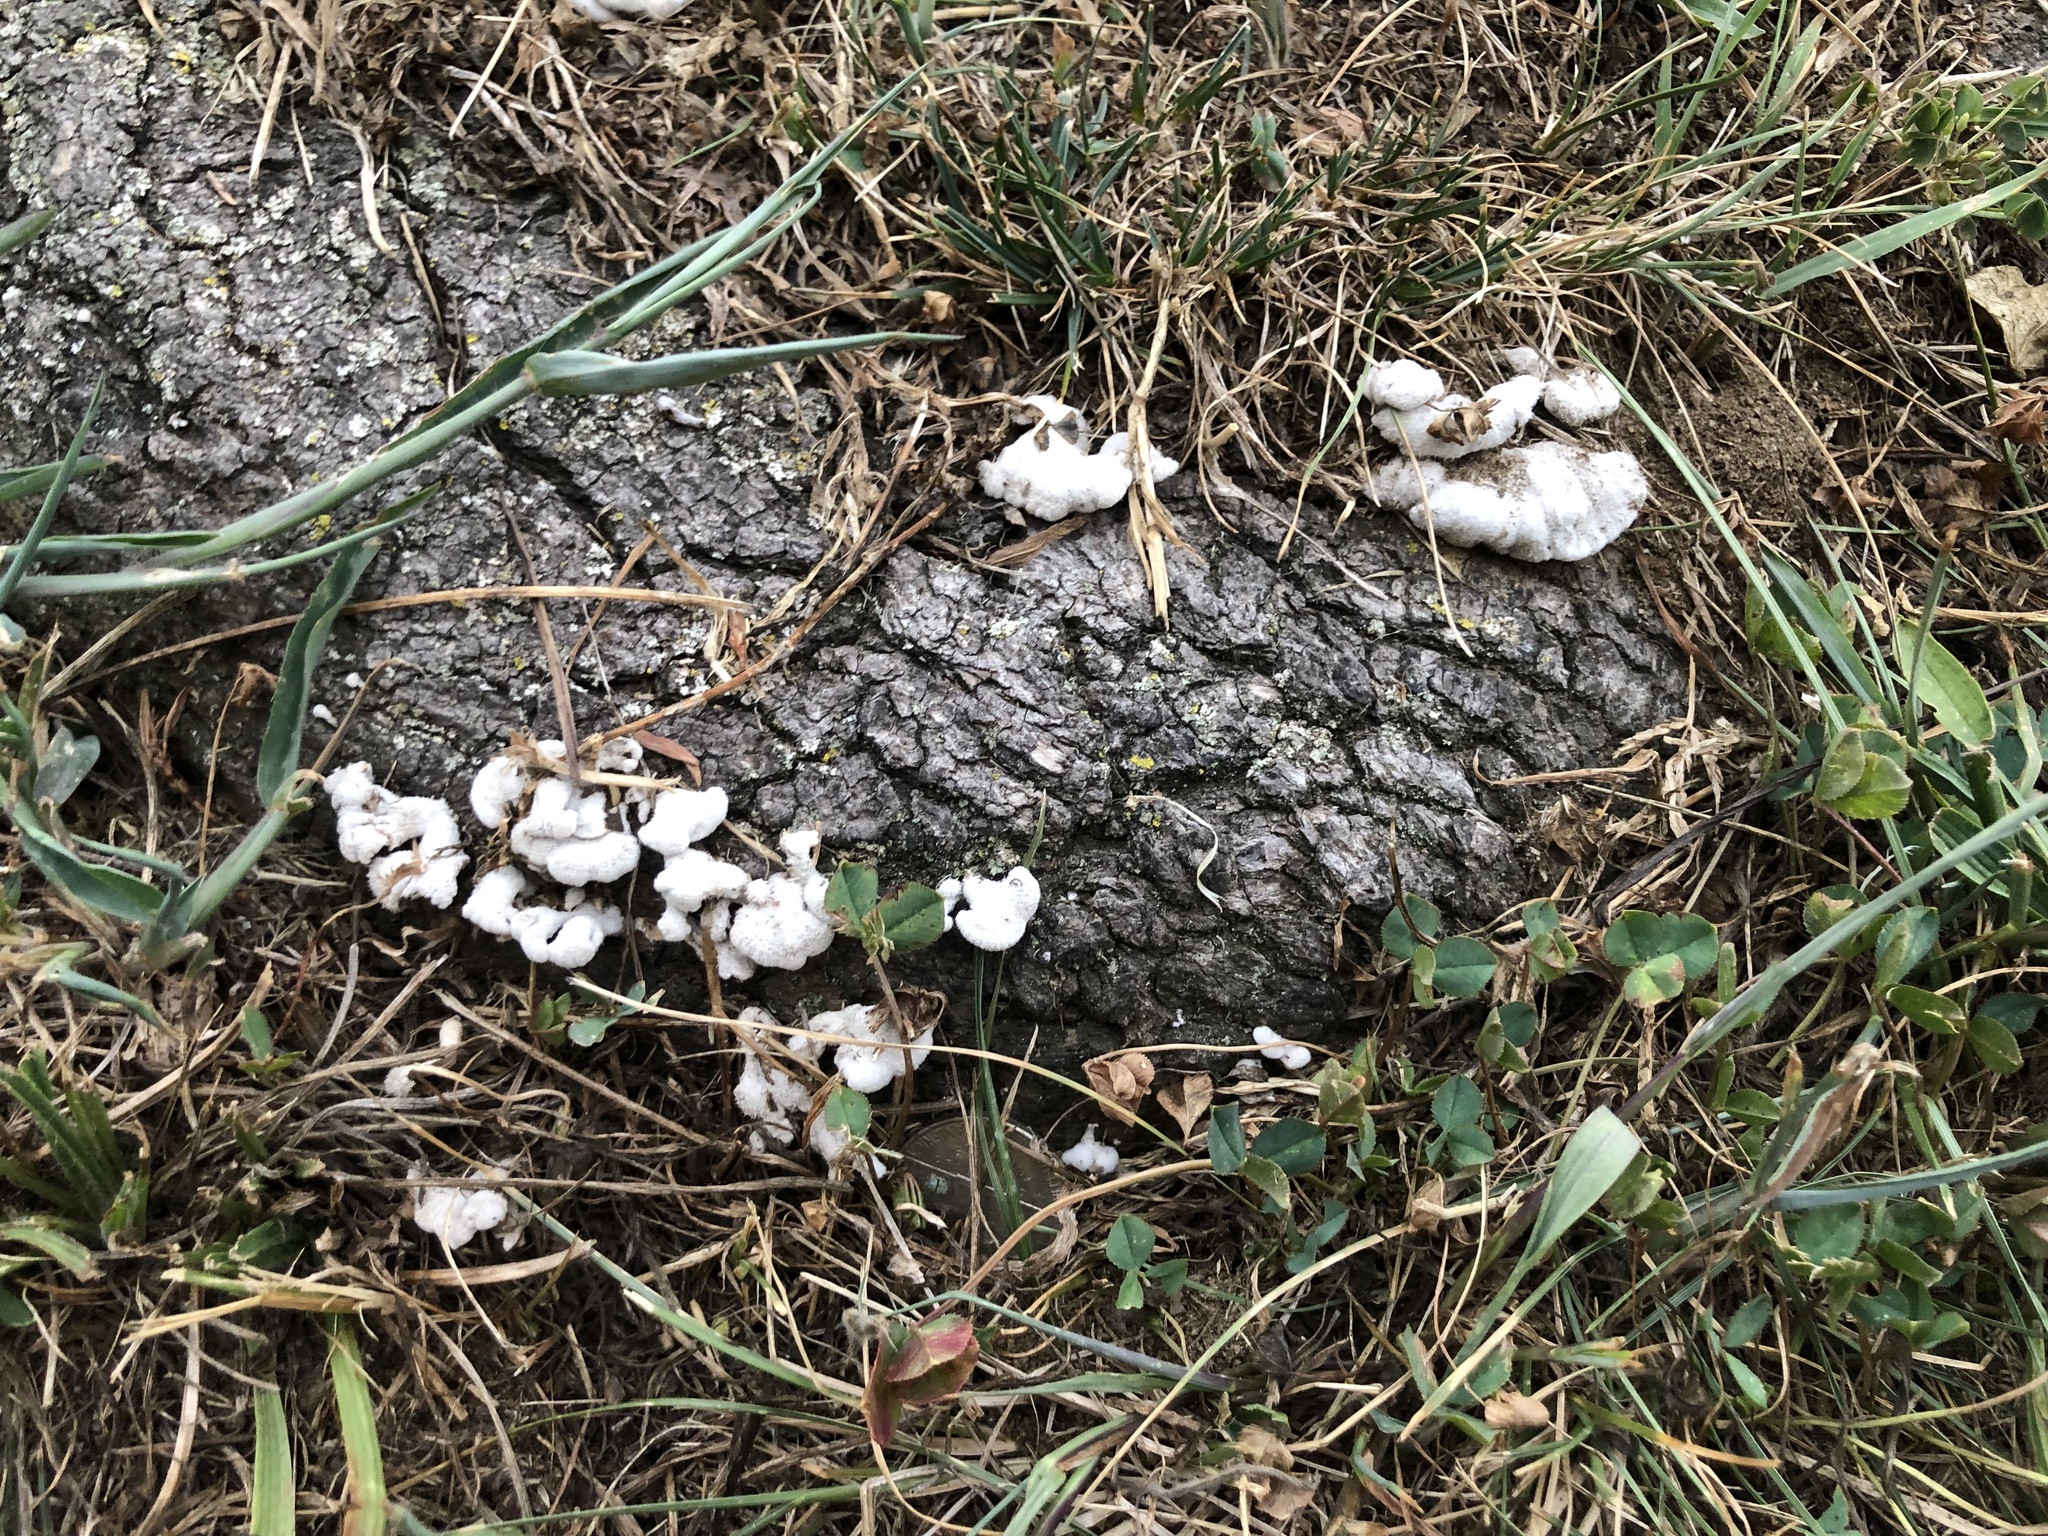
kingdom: Fungi
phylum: Basidiomycota
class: Agaricomycetes
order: Agaricales
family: Schizophyllaceae
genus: Schizophyllum
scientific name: Schizophyllum commune
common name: Common porecrust
